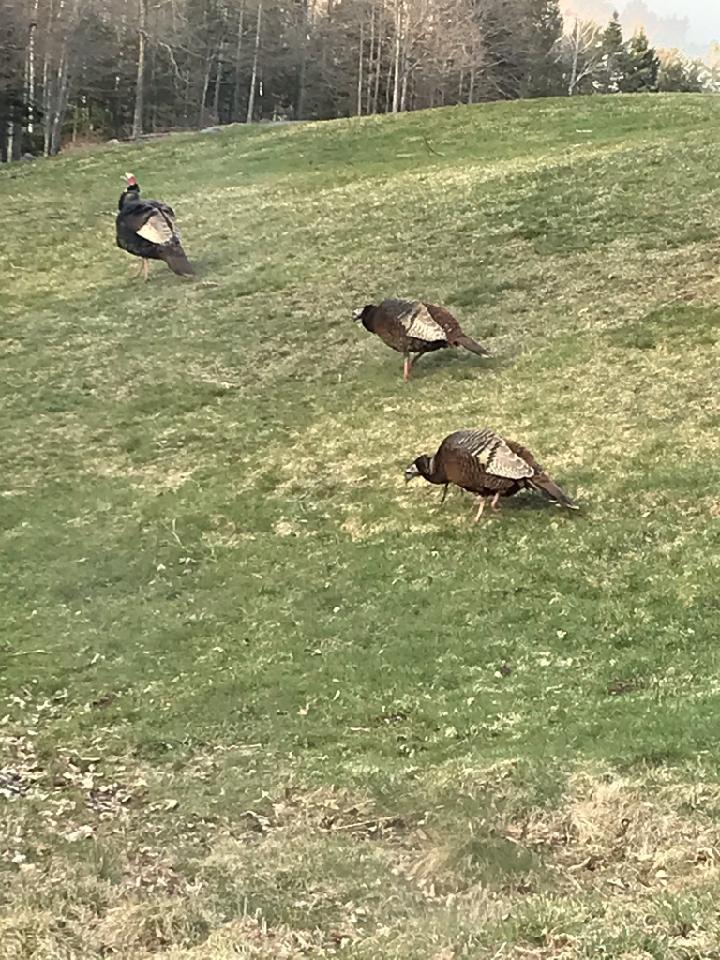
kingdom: Animalia
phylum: Chordata
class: Aves
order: Galliformes
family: Phasianidae
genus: Meleagris
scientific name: Meleagris gallopavo
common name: Wild turkey
